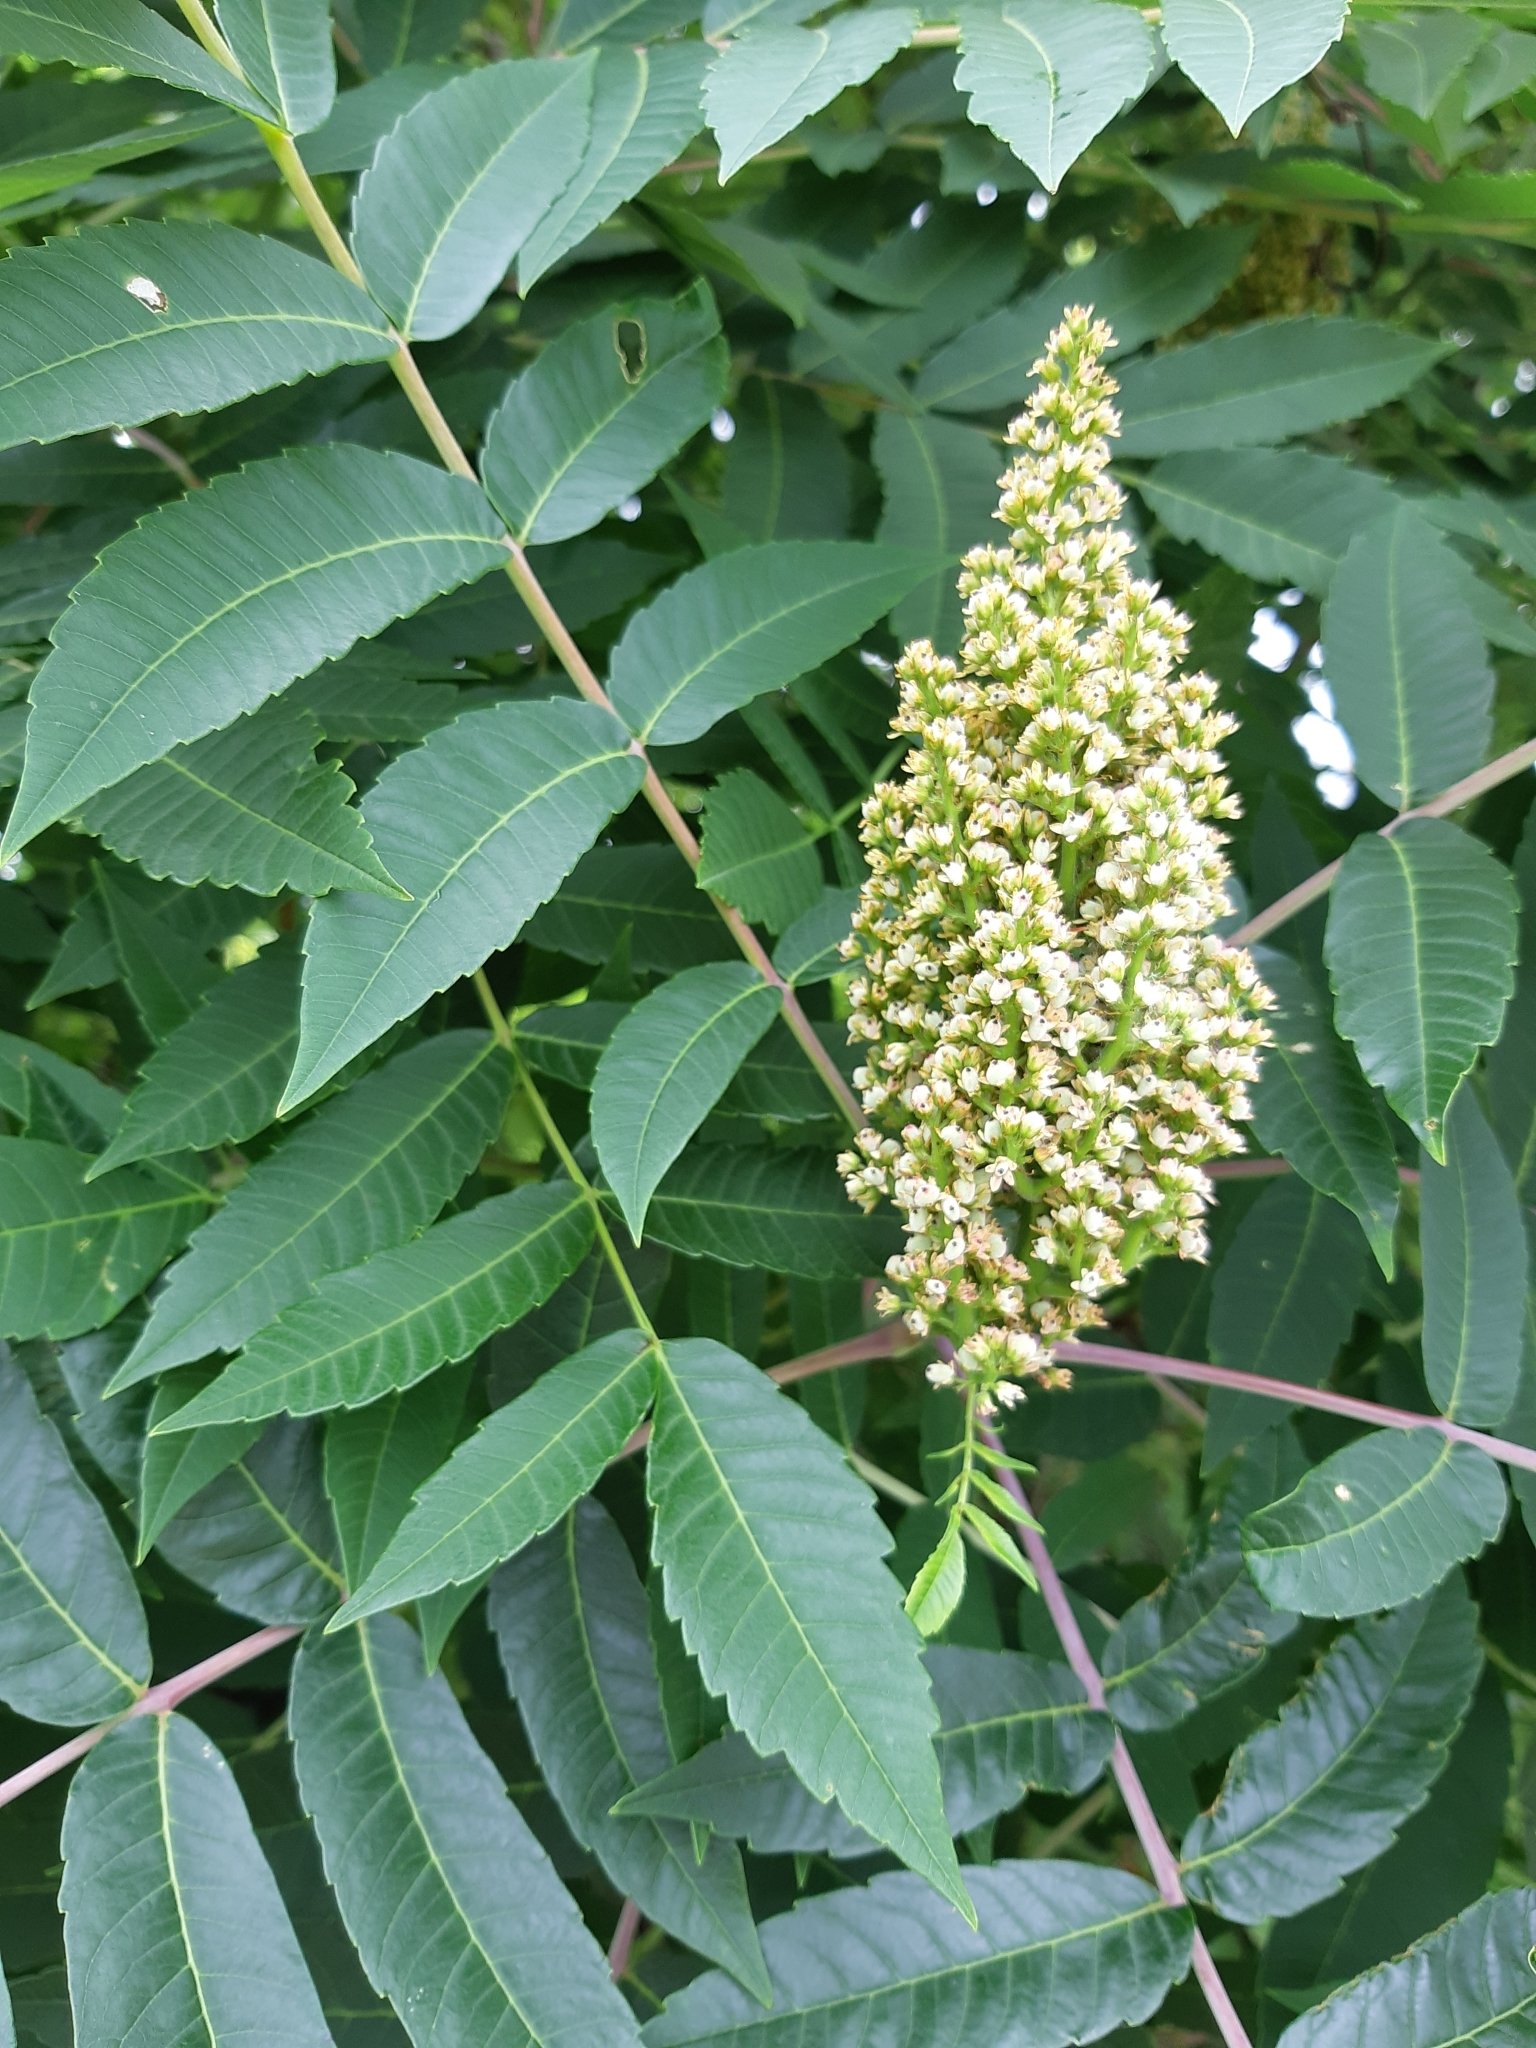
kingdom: Plantae
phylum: Tracheophyta
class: Magnoliopsida
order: Sapindales
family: Anacardiaceae
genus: Rhus
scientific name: Rhus glabra
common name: Scarlet sumac
